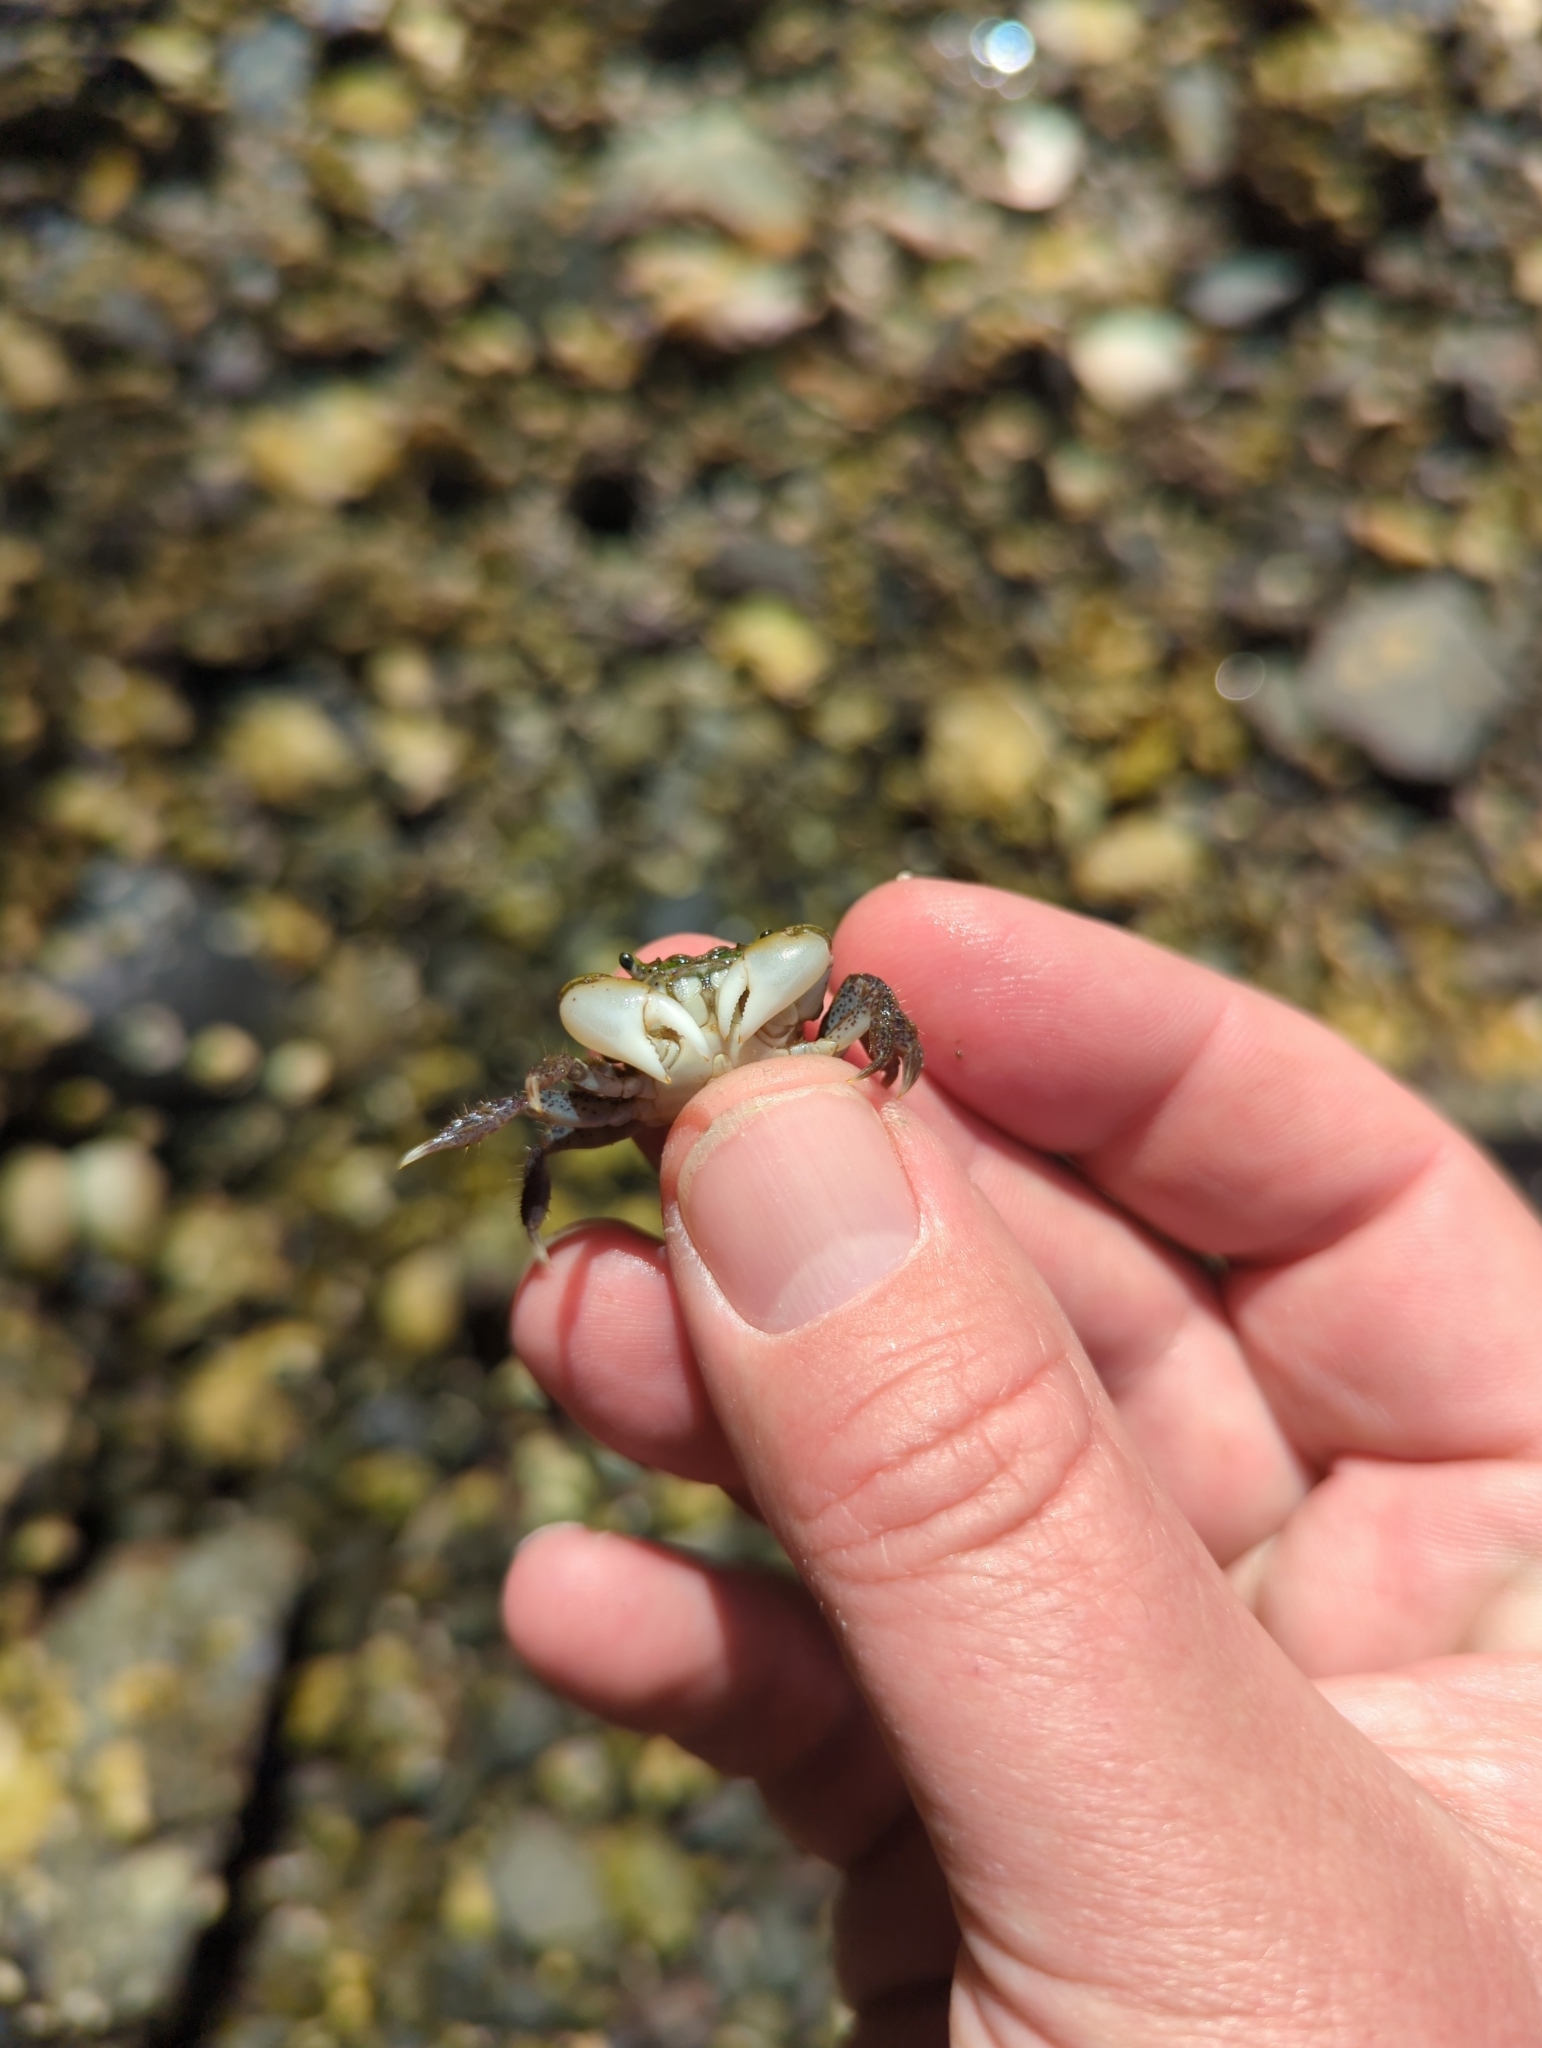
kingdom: Animalia
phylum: Arthropoda
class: Malacostraca
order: Decapoda
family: Varunidae
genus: Hemigrapsus
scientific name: Hemigrapsus oregonensis
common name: Yellow shore crab
